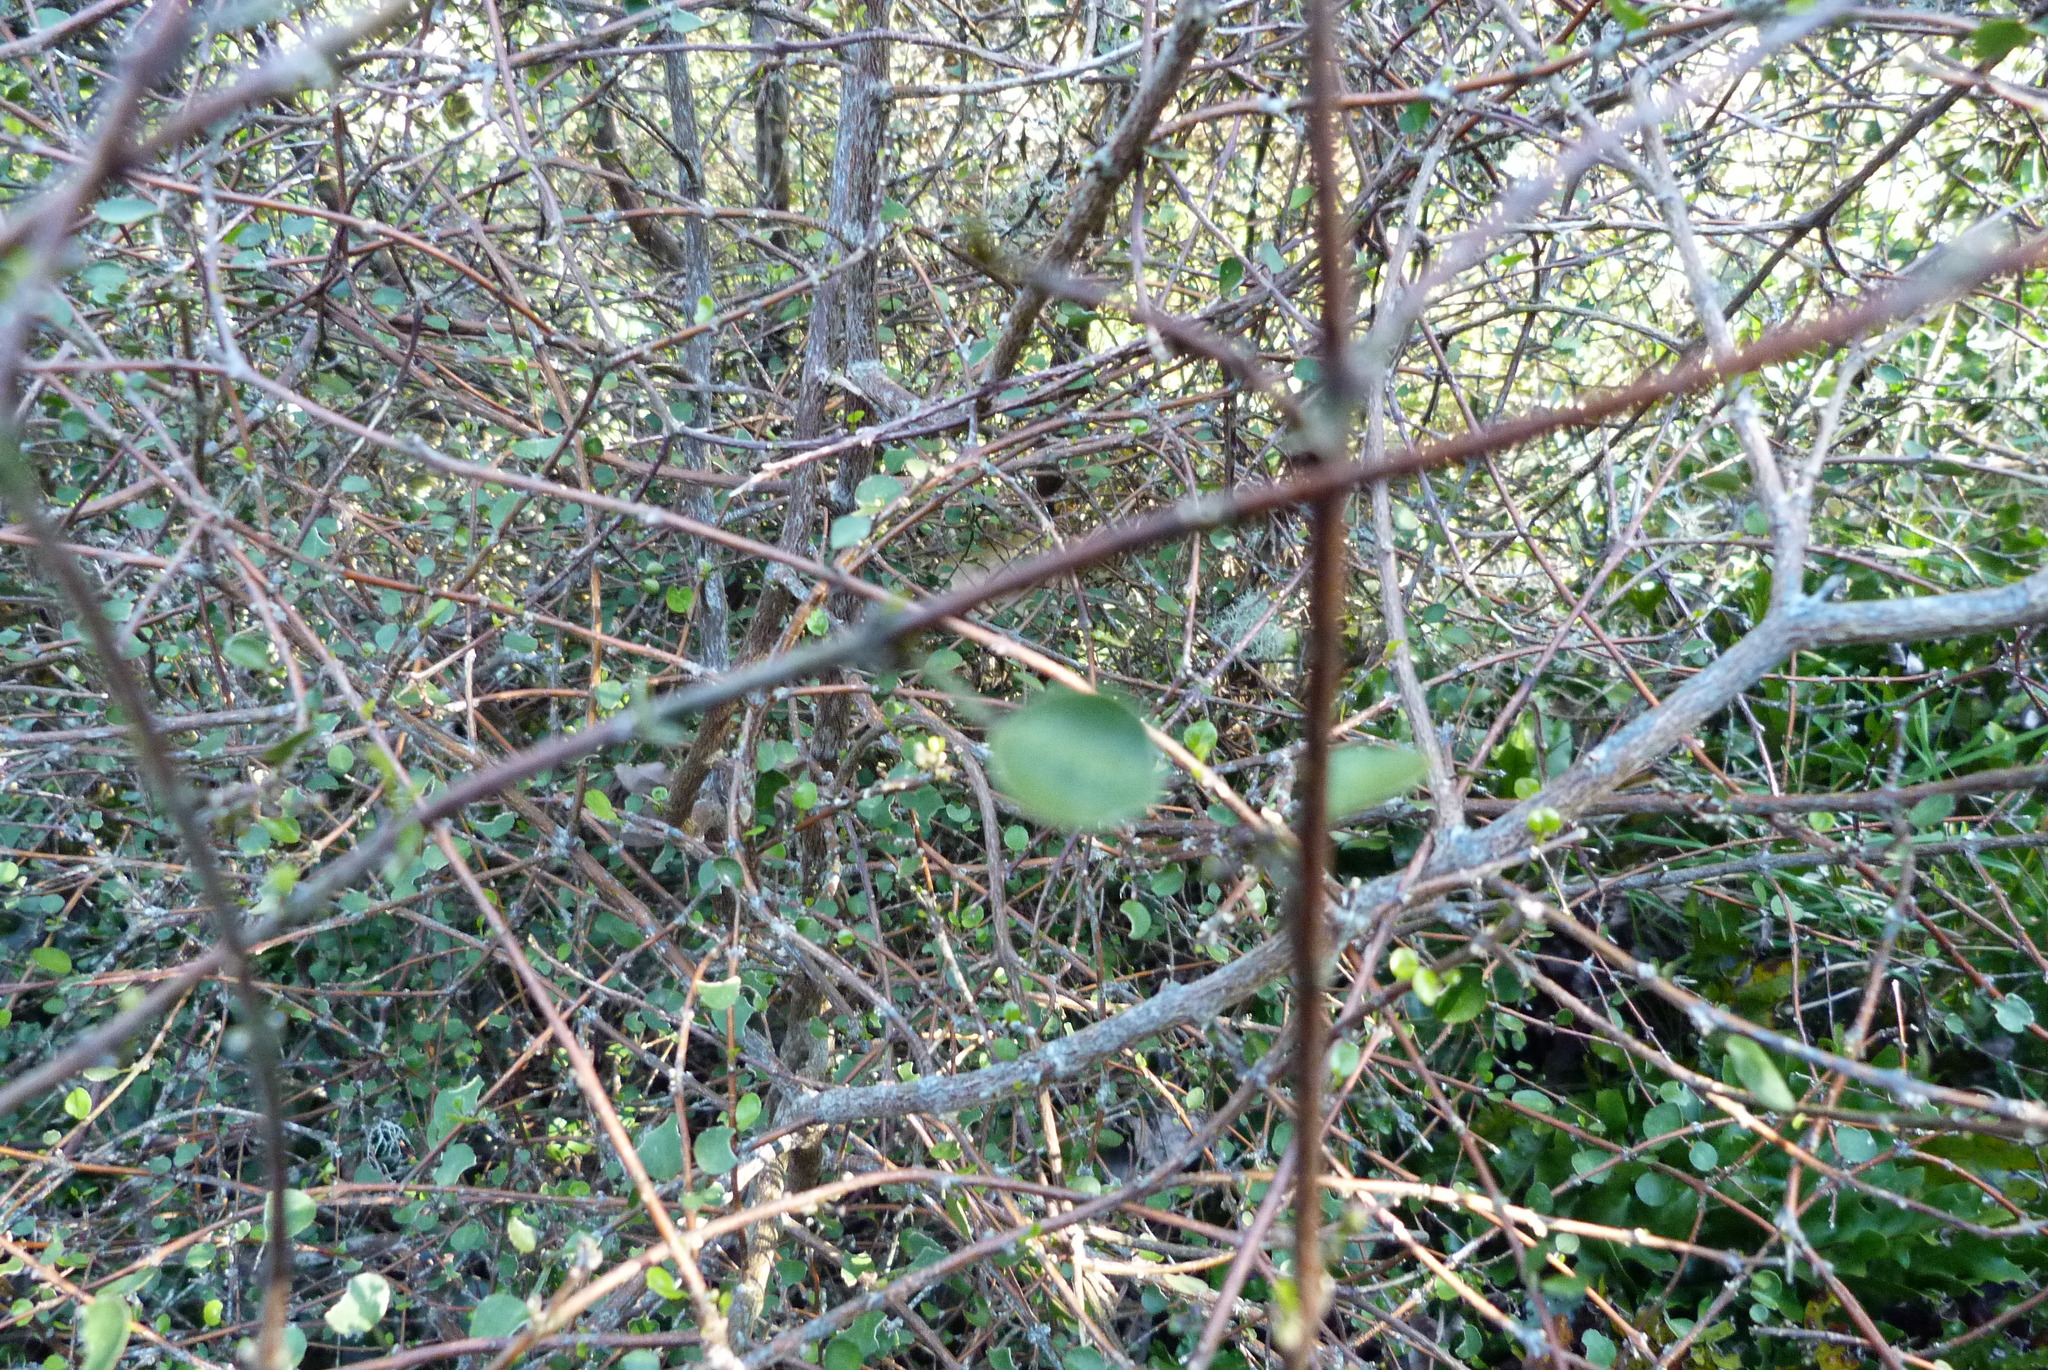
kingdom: Plantae
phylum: Tracheophyta
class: Magnoliopsida
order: Sapindales
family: Rutaceae
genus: Melicope
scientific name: Melicope simplex
